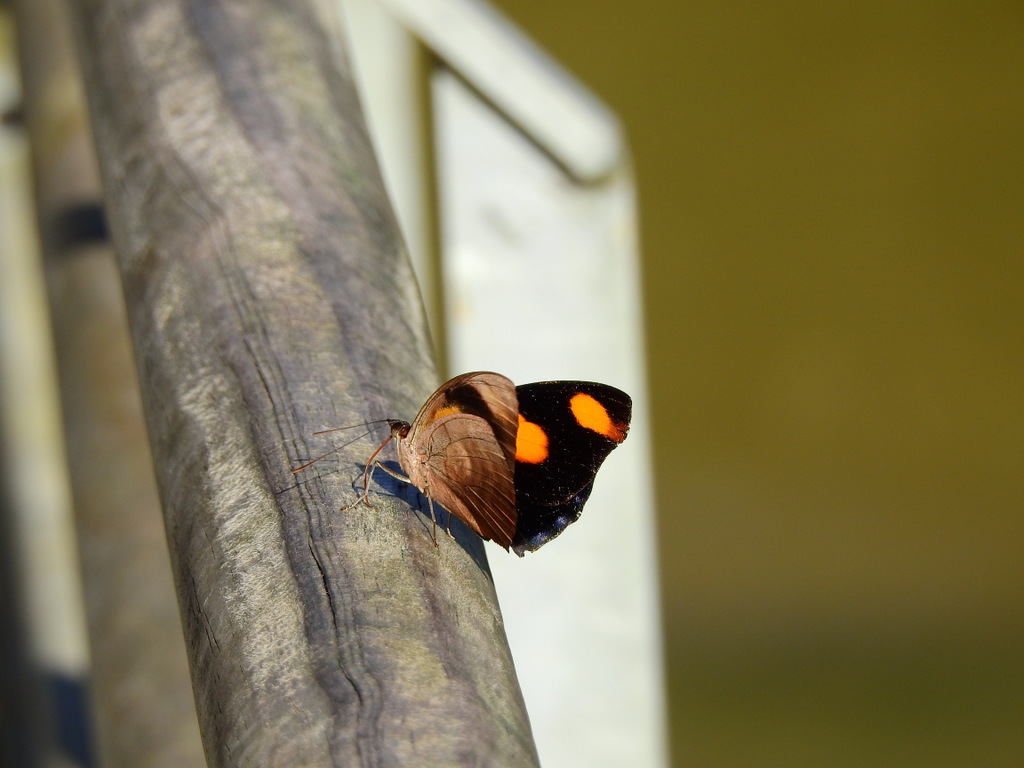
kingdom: Animalia
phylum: Arthropoda
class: Insecta
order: Lepidoptera
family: Nymphalidae
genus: Catonephele
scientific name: Catonephele numilia
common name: Blue-frosted banner
